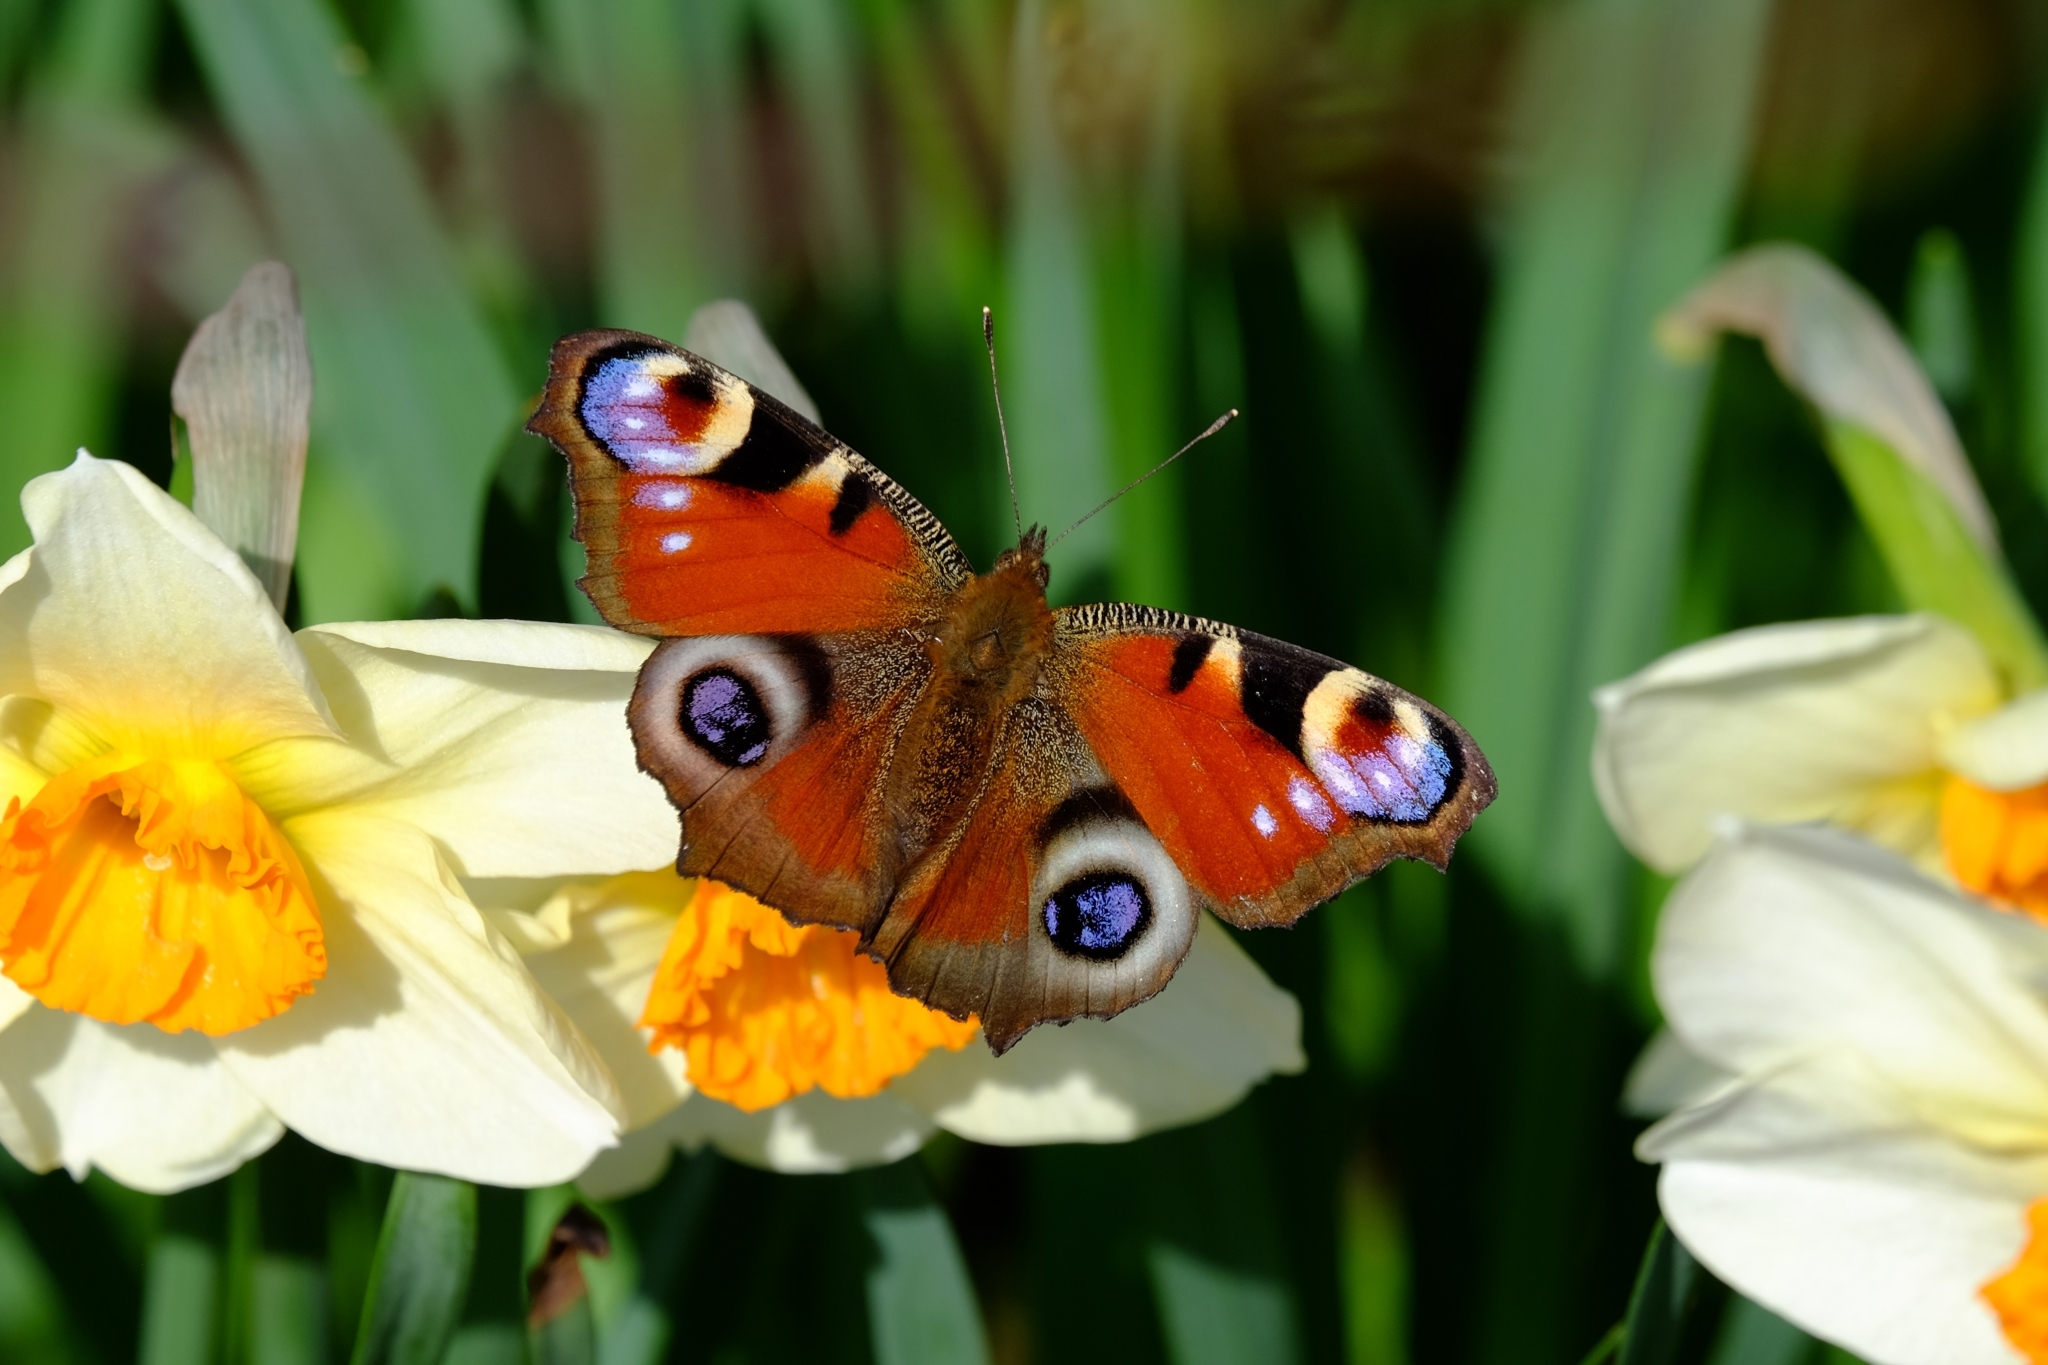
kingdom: Animalia
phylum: Arthropoda
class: Insecta
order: Lepidoptera
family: Nymphalidae
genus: Aglais
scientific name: Aglais io
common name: Peacock
